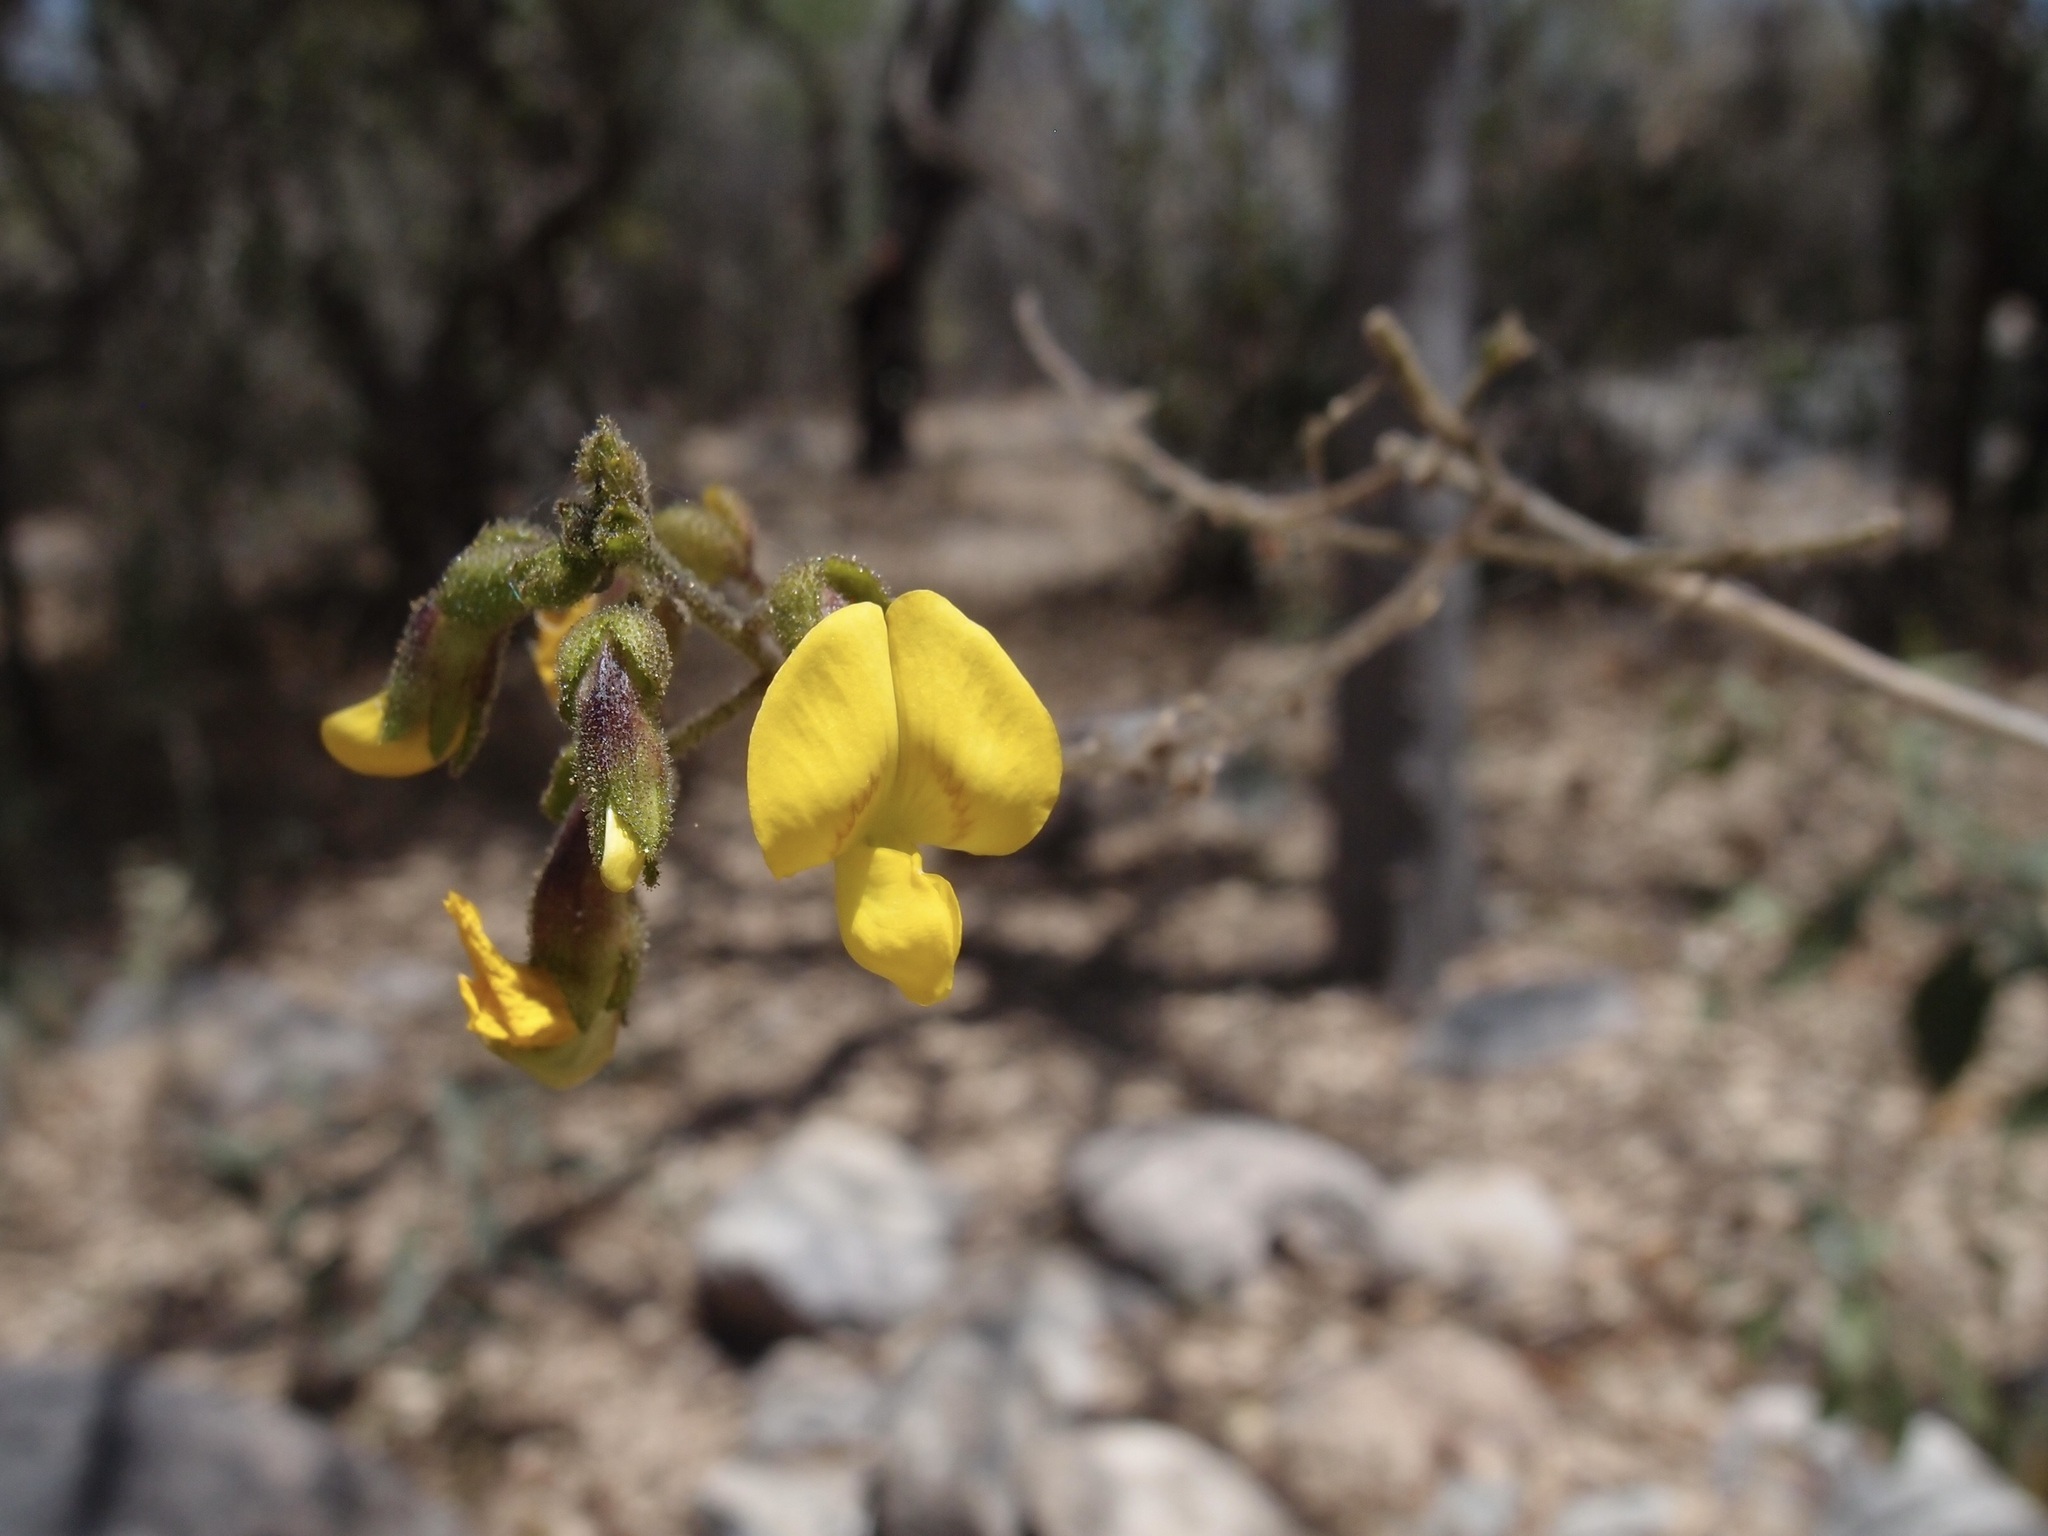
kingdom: Plantae
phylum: Tracheophyta
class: Magnoliopsida
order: Fabales
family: Fabaceae
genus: Diphysa
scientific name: Diphysa racemosa
